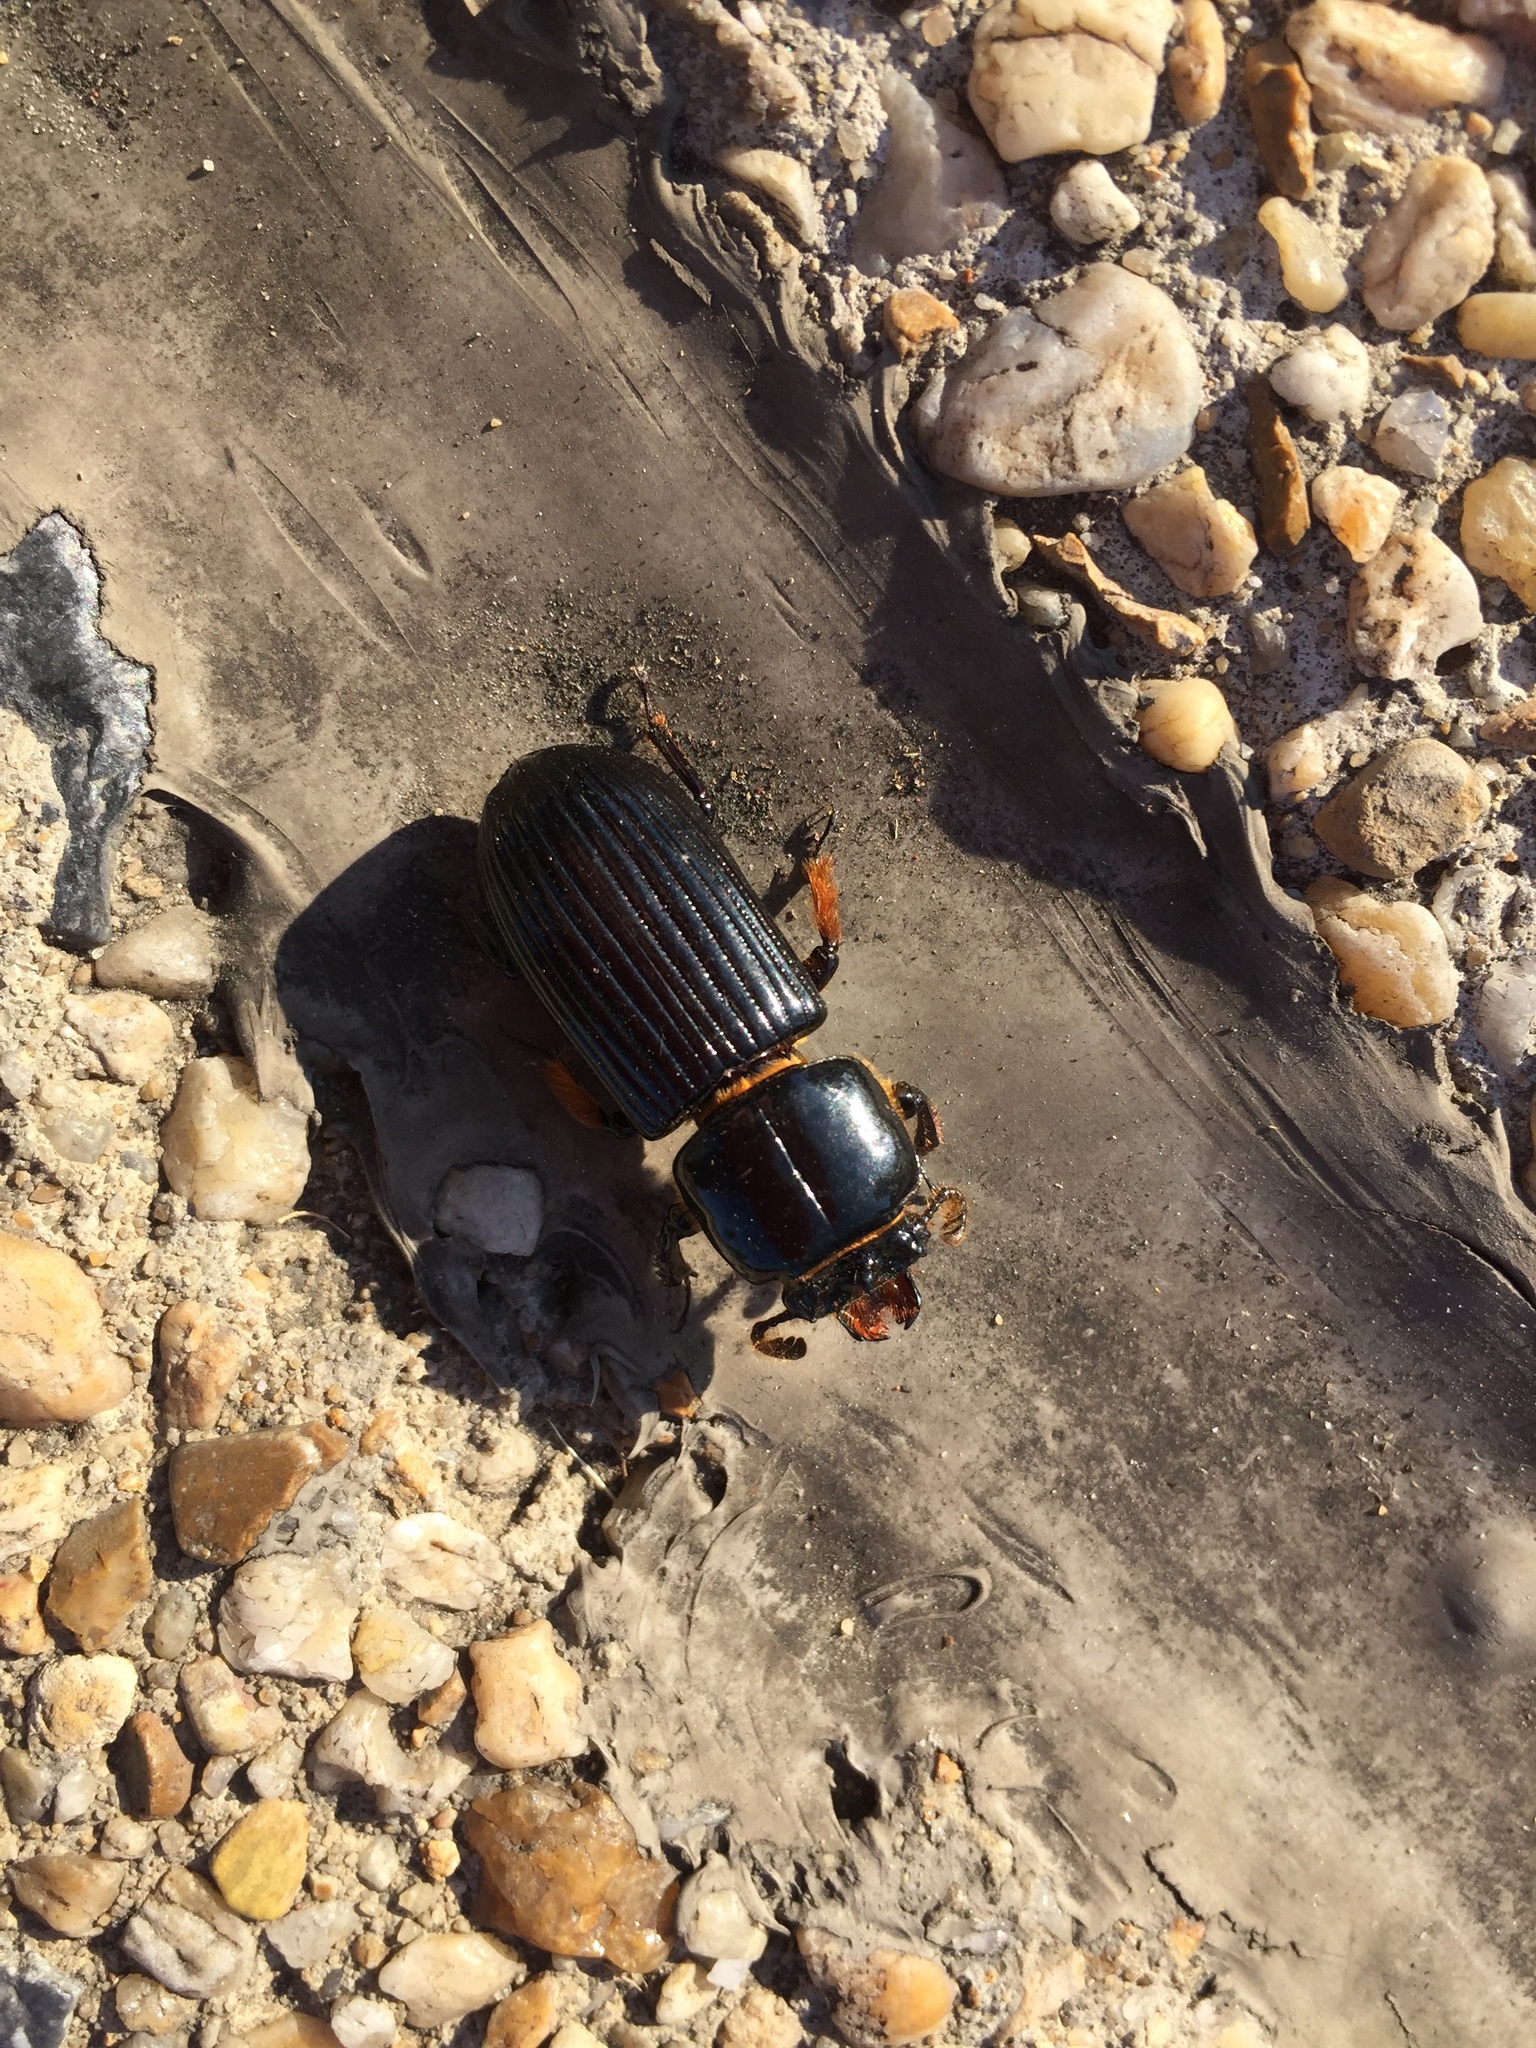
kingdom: Animalia
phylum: Arthropoda
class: Insecta
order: Coleoptera
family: Passalidae
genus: Odontotaenius
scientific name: Odontotaenius disjunctus
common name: Patent leather beetle
